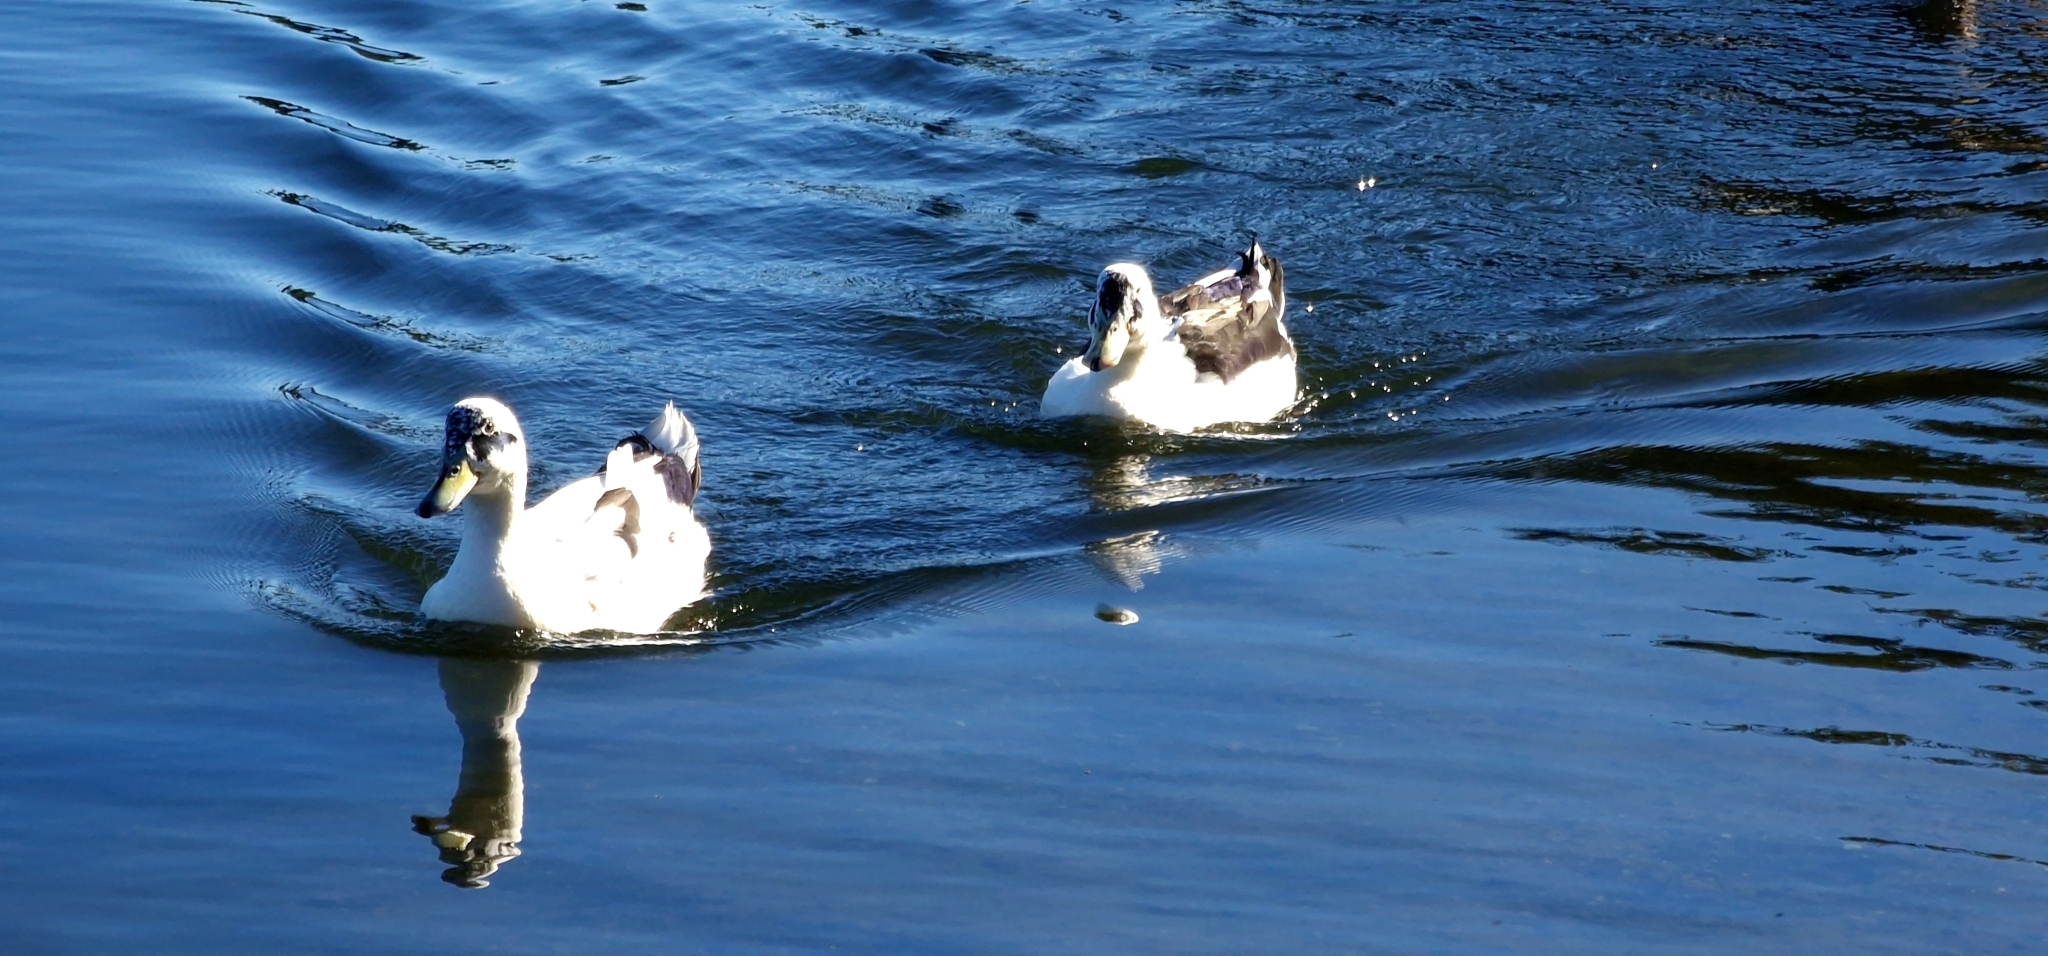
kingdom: Animalia
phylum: Chordata
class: Aves
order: Anseriformes
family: Anatidae
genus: Anas
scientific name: Anas platyrhynchos
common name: Mallard
